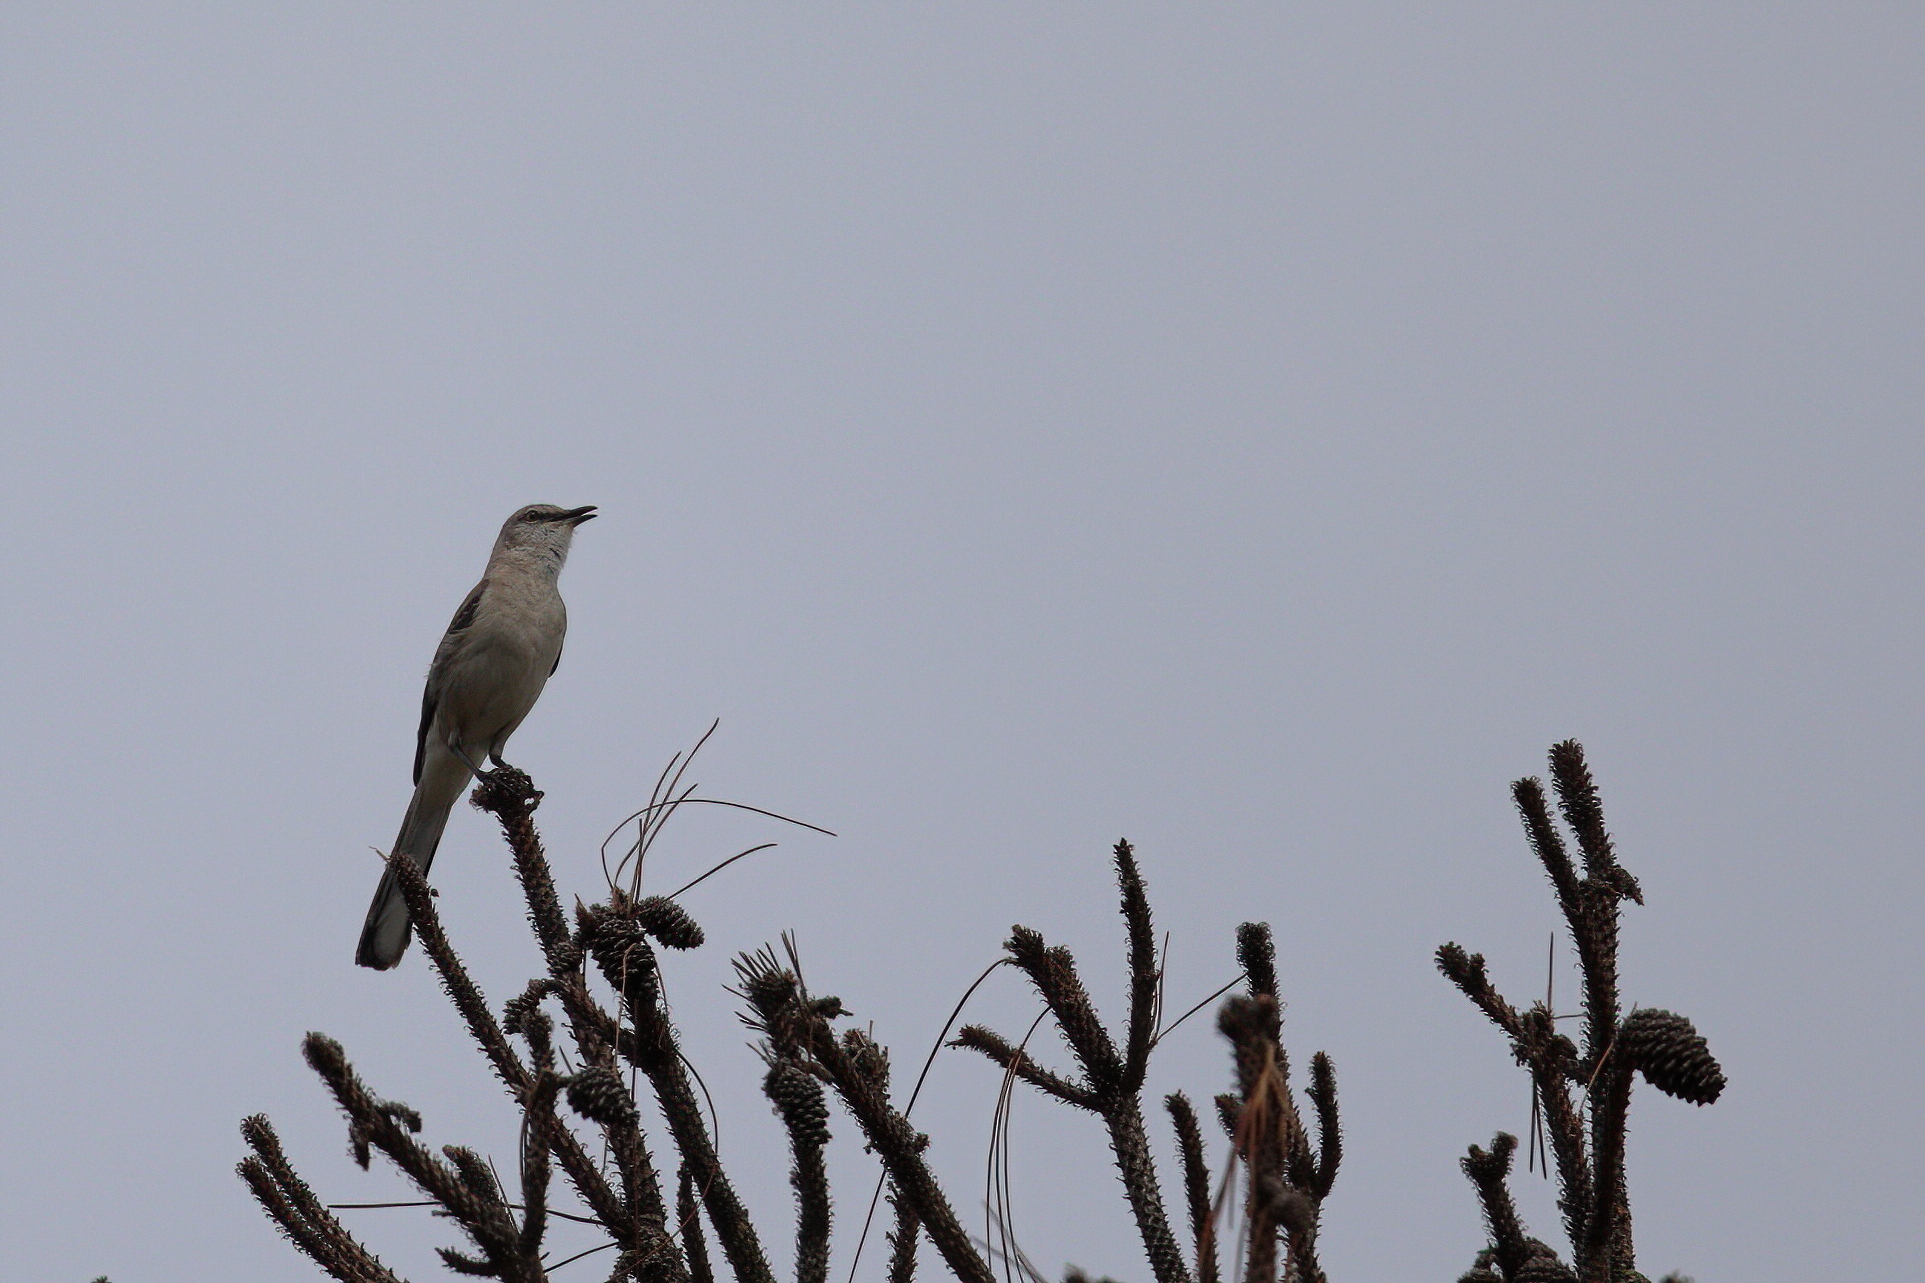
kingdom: Animalia
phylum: Chordata
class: Aves
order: Passeriformes
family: Mimidae
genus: Mimus
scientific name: Mimus polyglottos
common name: Northern mockingbird
